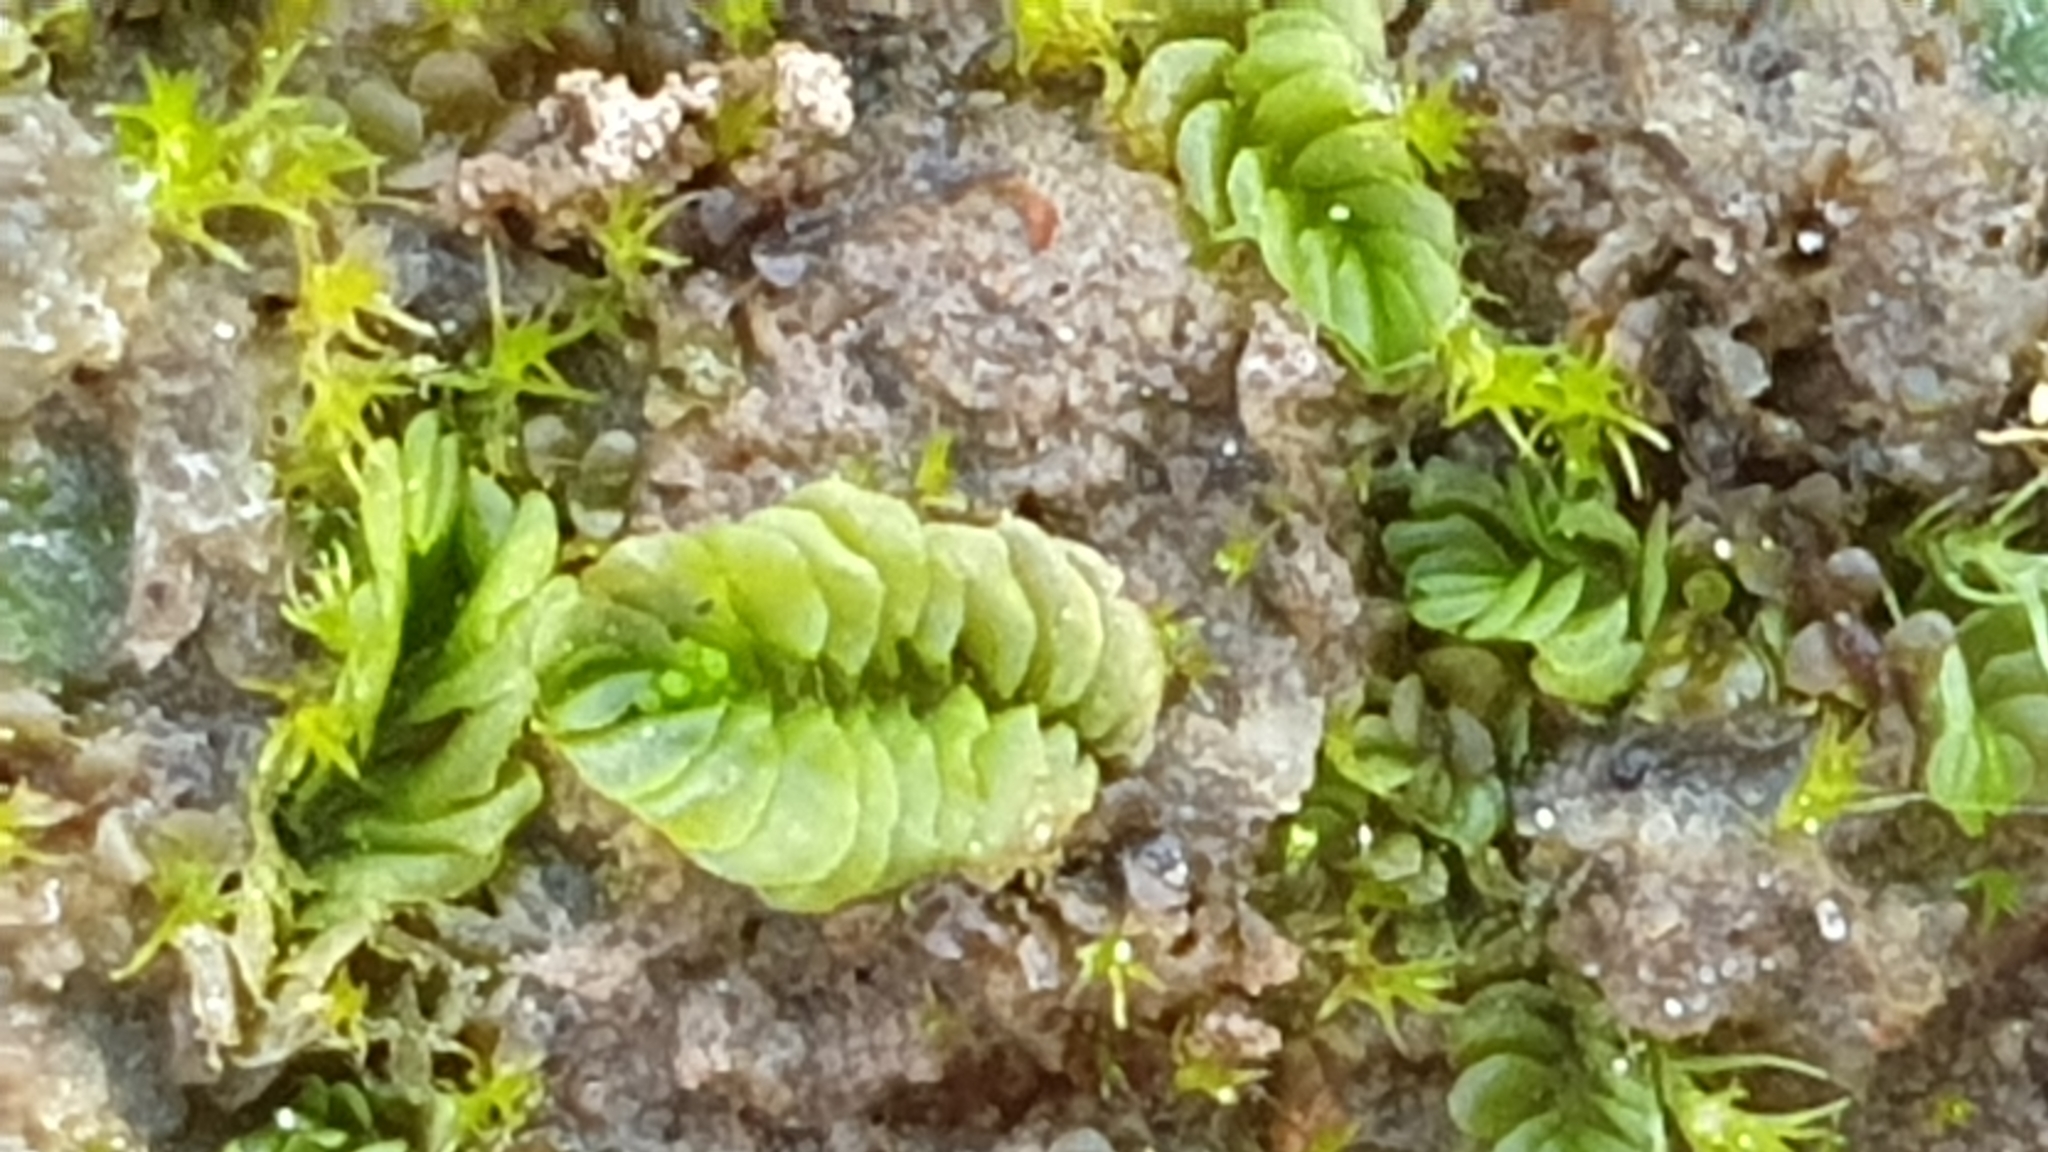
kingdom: Plantae
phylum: Marchantiophyta
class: Jungermanniopsida
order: Jungermanniales
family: Acrobolbaceae
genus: Lethocolea
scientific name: Lethocolea pansa
